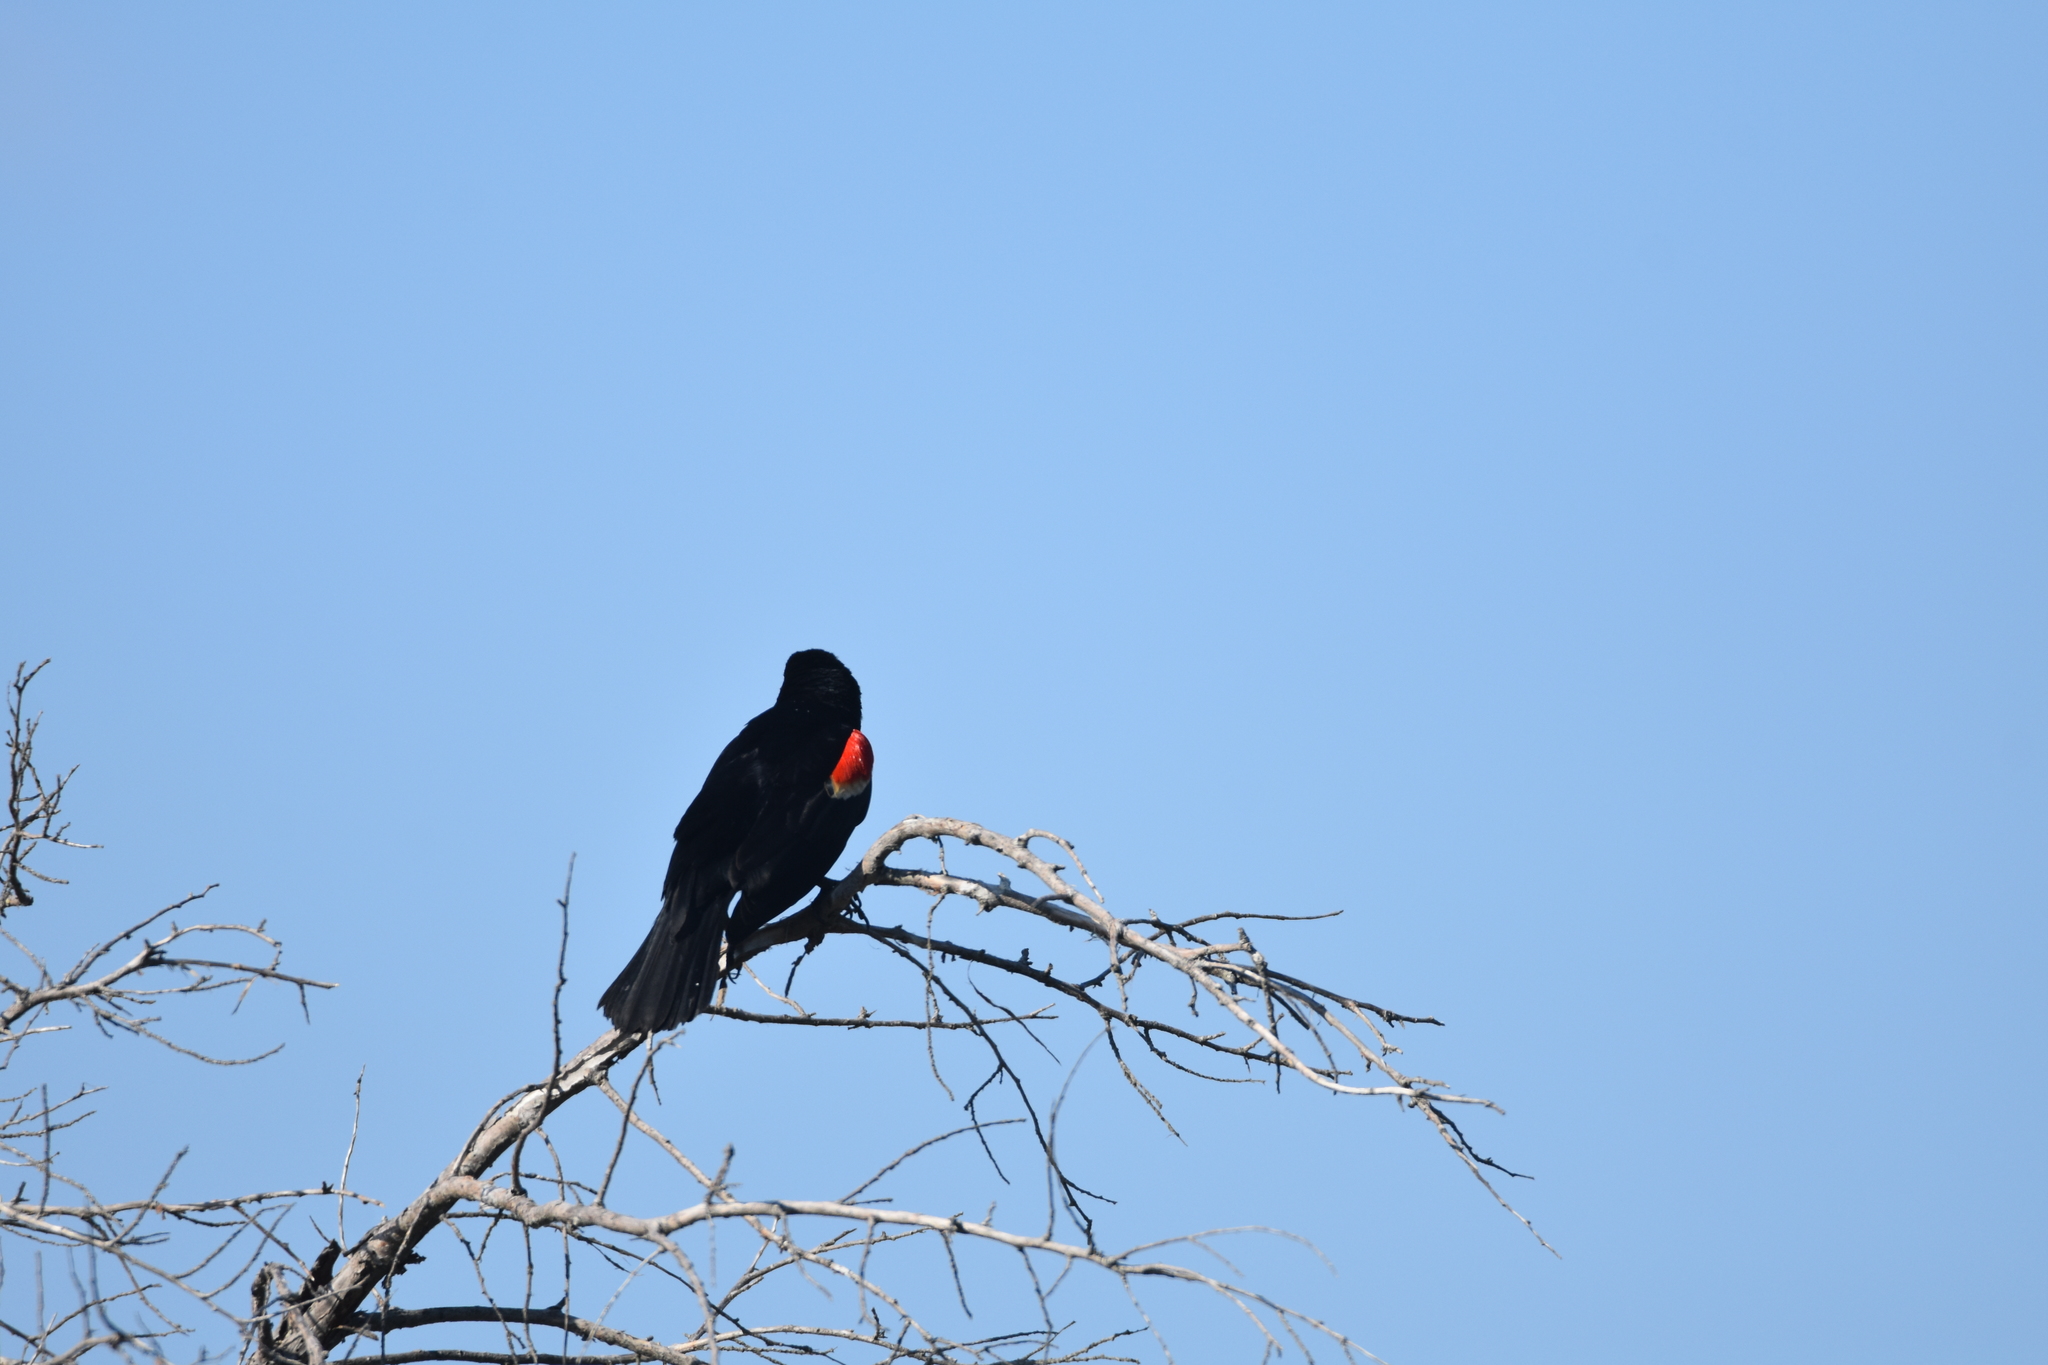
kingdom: Animalia
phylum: Chordata
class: Aves
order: Passeriformes
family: Icteridae
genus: Agelaius
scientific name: Agelaius phoeniceus
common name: Red-winged blackbird
